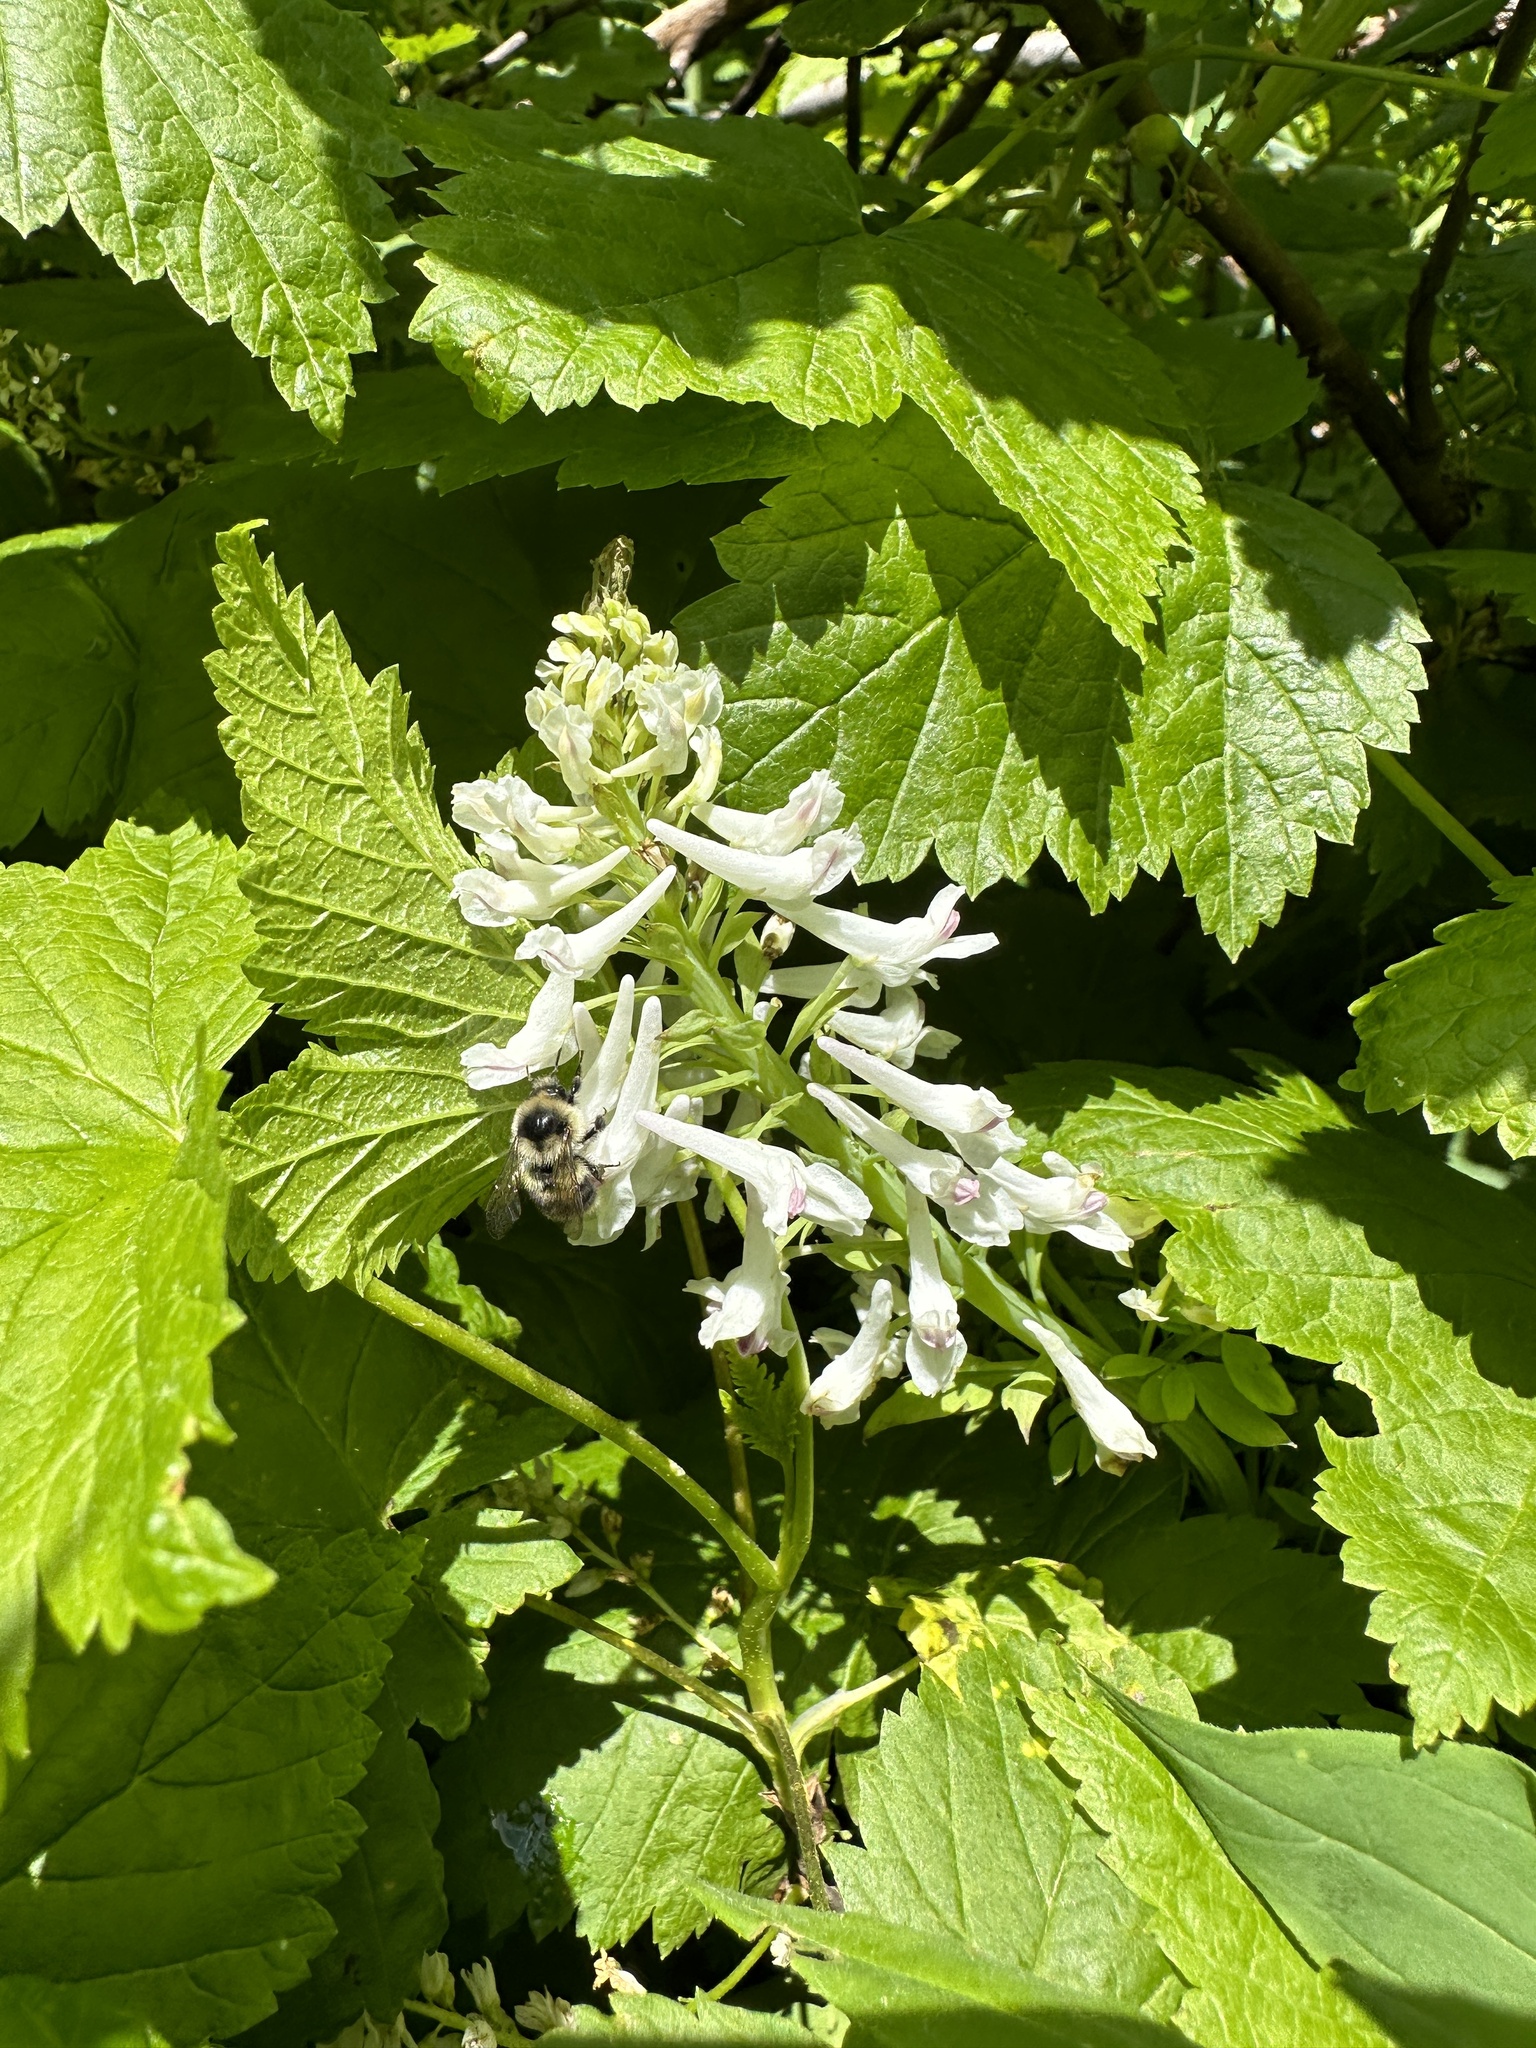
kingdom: Plantae
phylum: Tracheophyta
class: Magnoliopsida
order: Ranunculales
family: Papaveraceae
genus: Corydalis
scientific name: Corydalis caseana
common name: Fitweed
